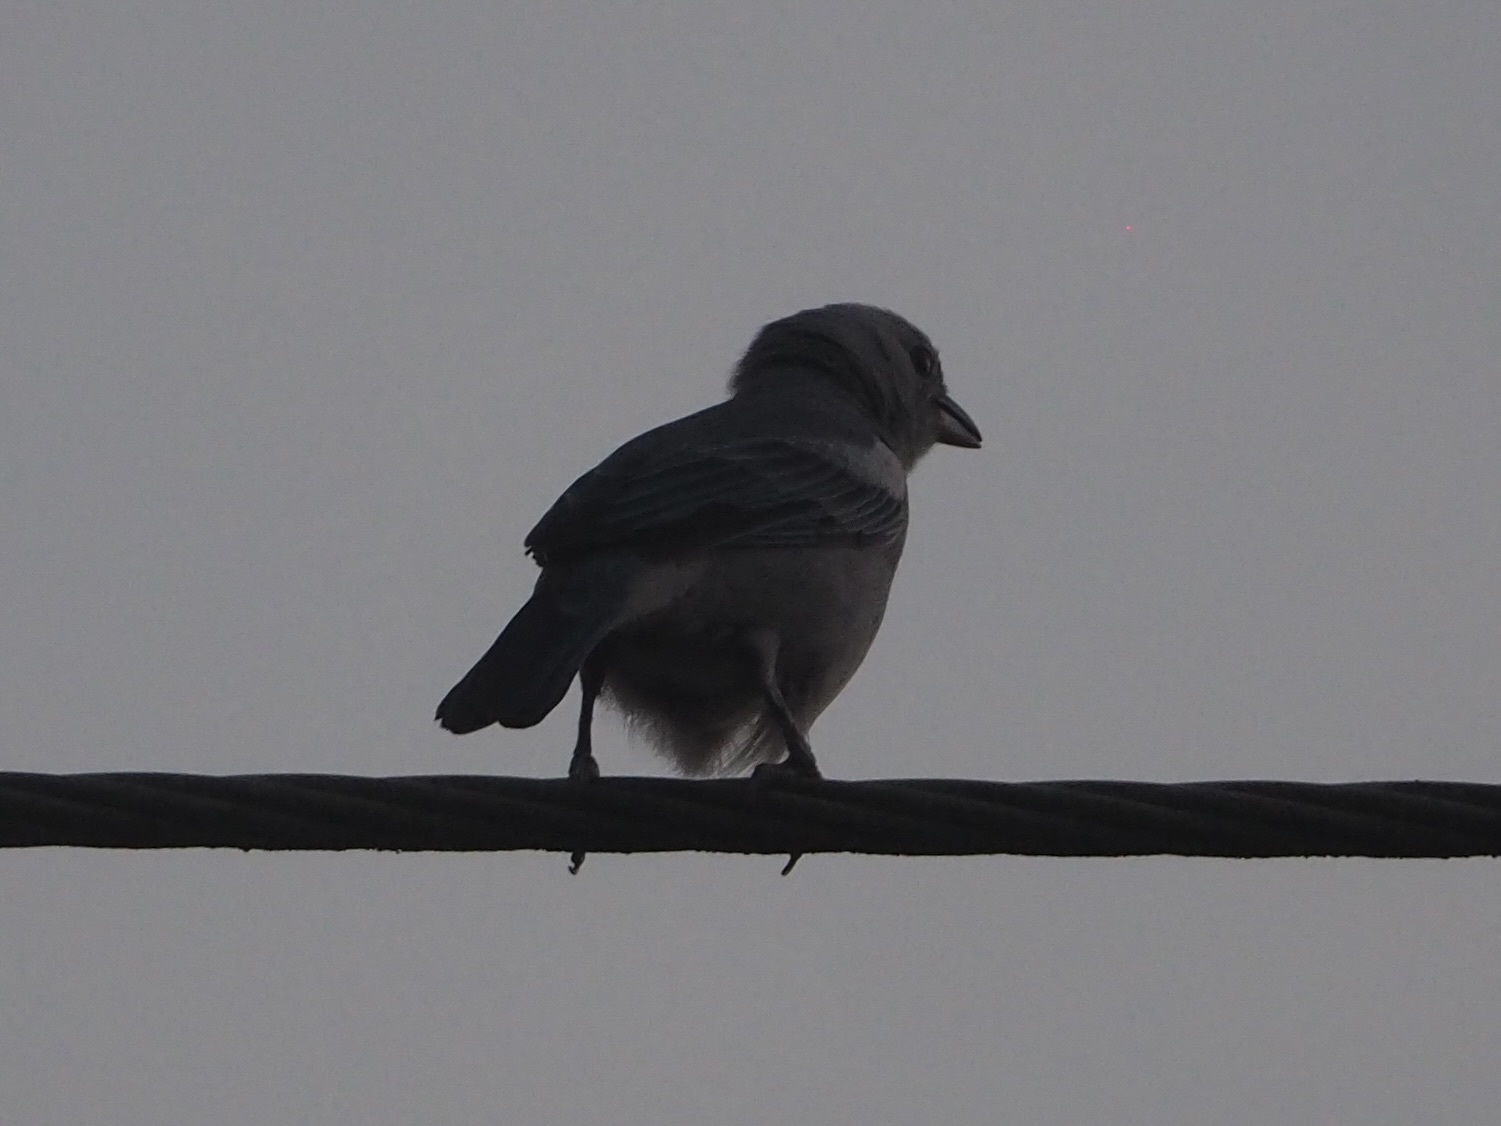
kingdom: Animalia
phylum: Chordata
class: Aves
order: Passeriformes
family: Thraupidae
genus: Thraupis
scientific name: Thraupis episcopus
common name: Blue-grey tanager
